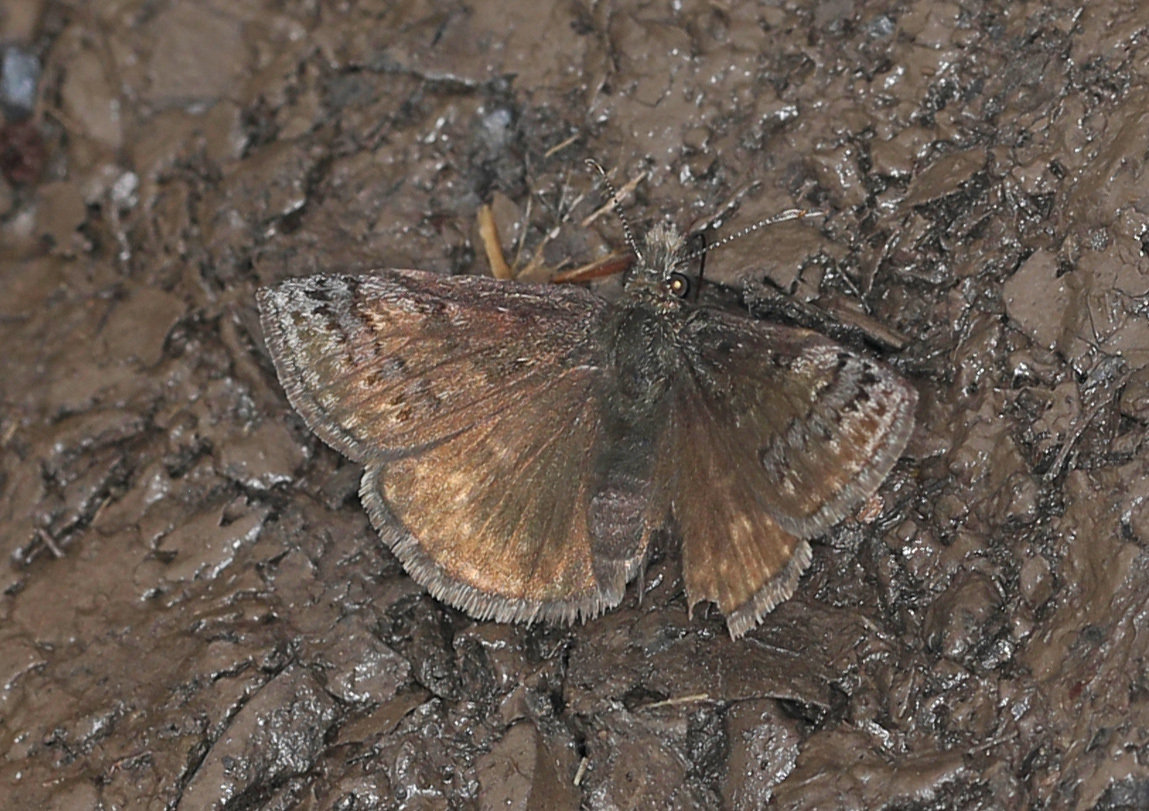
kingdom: Animalia
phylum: Arthropoda
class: Insecta
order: Lepidoptera
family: Hesperiidae
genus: Erynnis
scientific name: Erynnis brizo
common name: Sleepy duskywing
